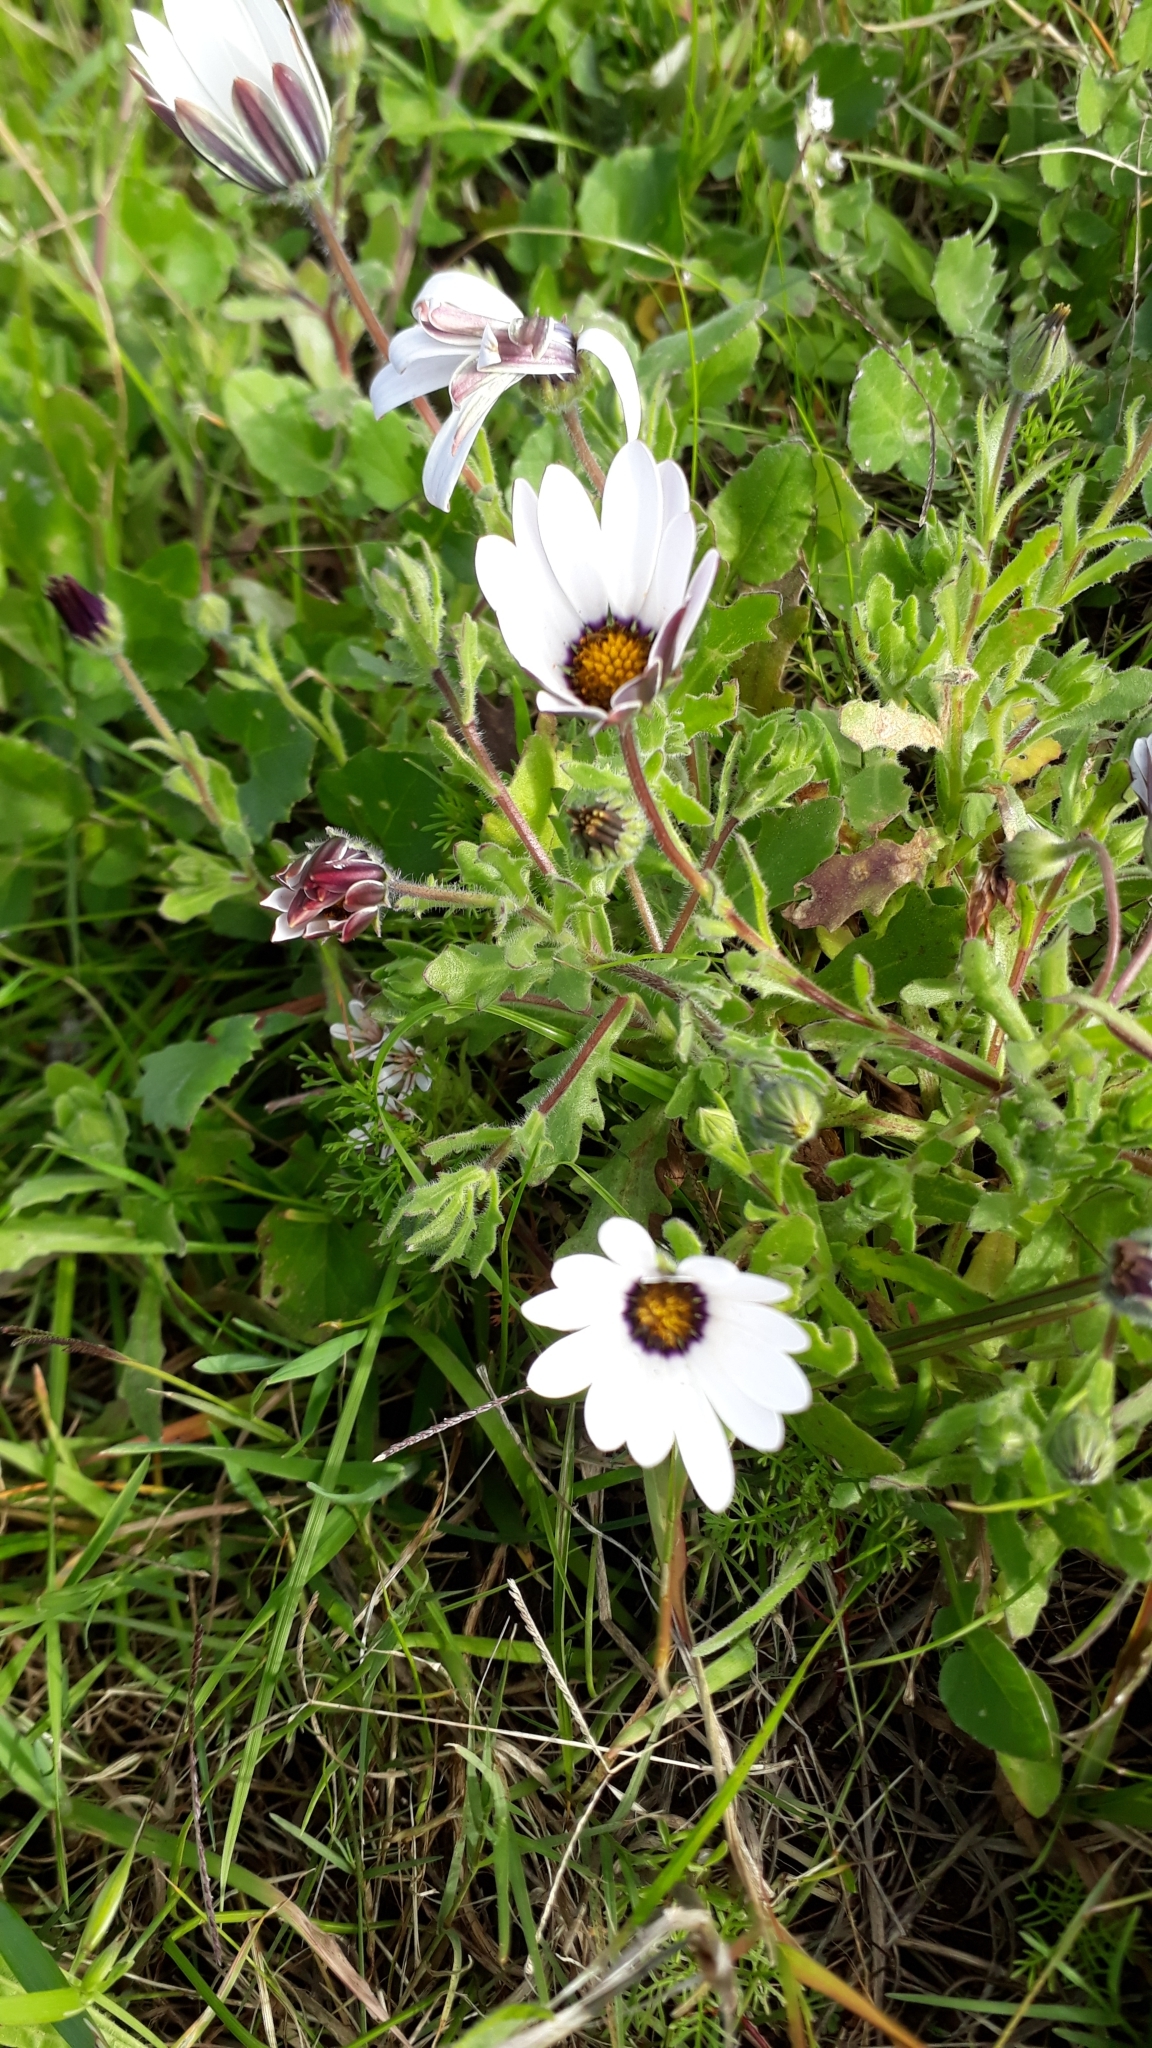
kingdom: Plantae
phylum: Tracheophyta
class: Magnoliopsida
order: Asterales
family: Asteraceae
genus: Dimorphotheca
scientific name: Dimorphotheca pluvialis
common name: Weather prophet
